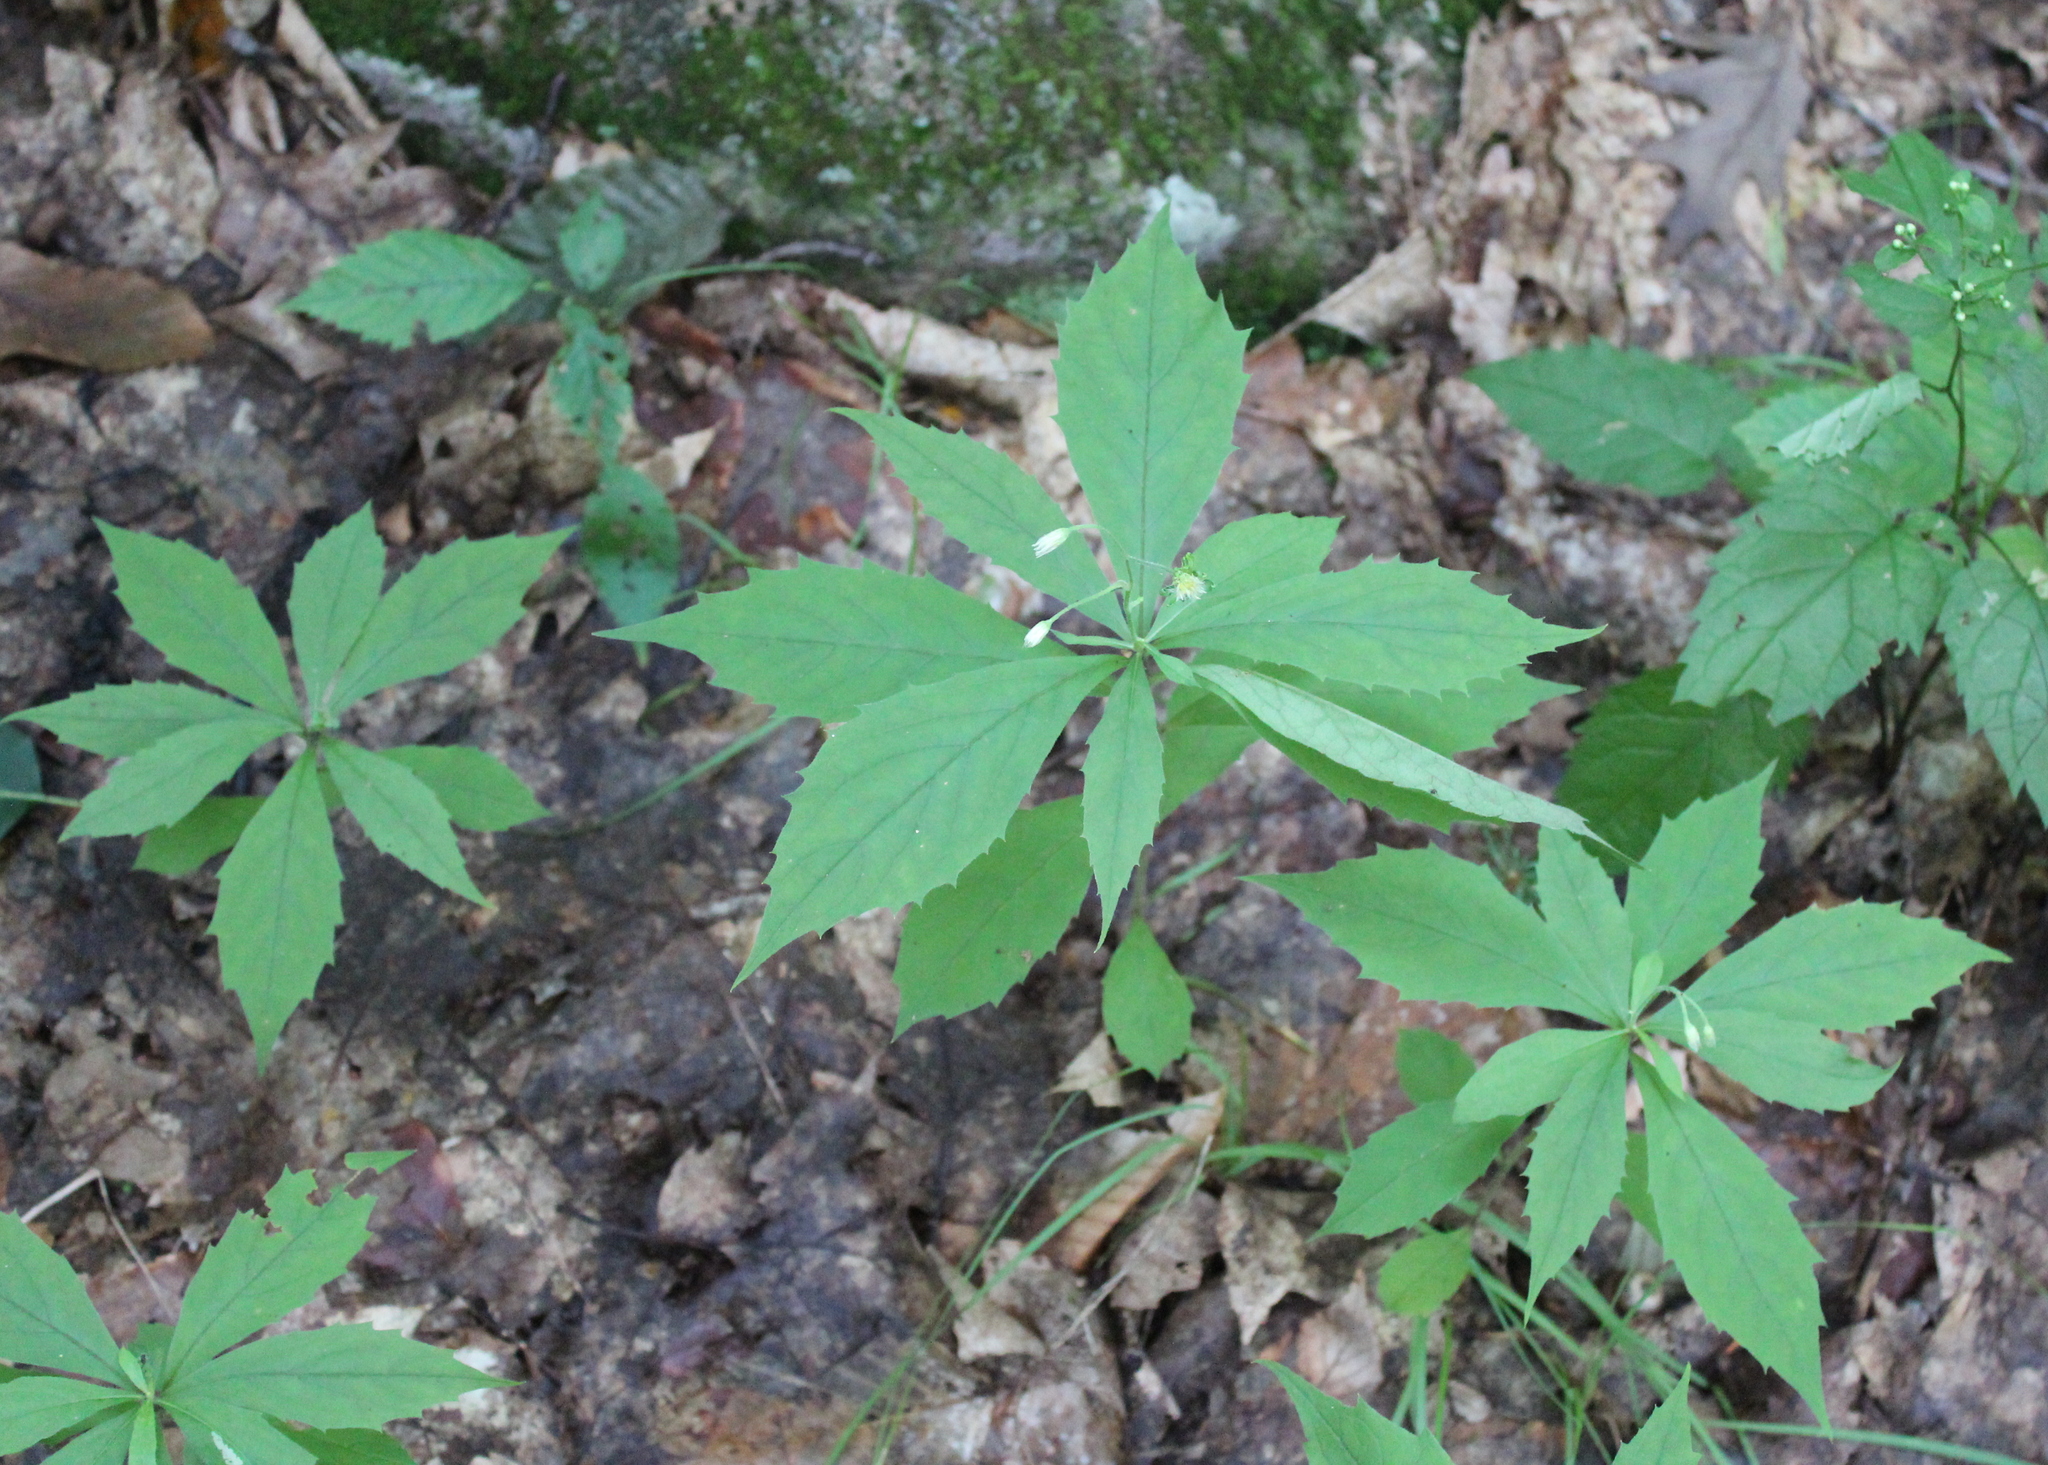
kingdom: Plantae
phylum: Tracheophyta
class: Magnoliopsida
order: Asterales
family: Asteraceae
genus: Oclemena
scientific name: Oclemena acuminata
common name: Mountain aster
